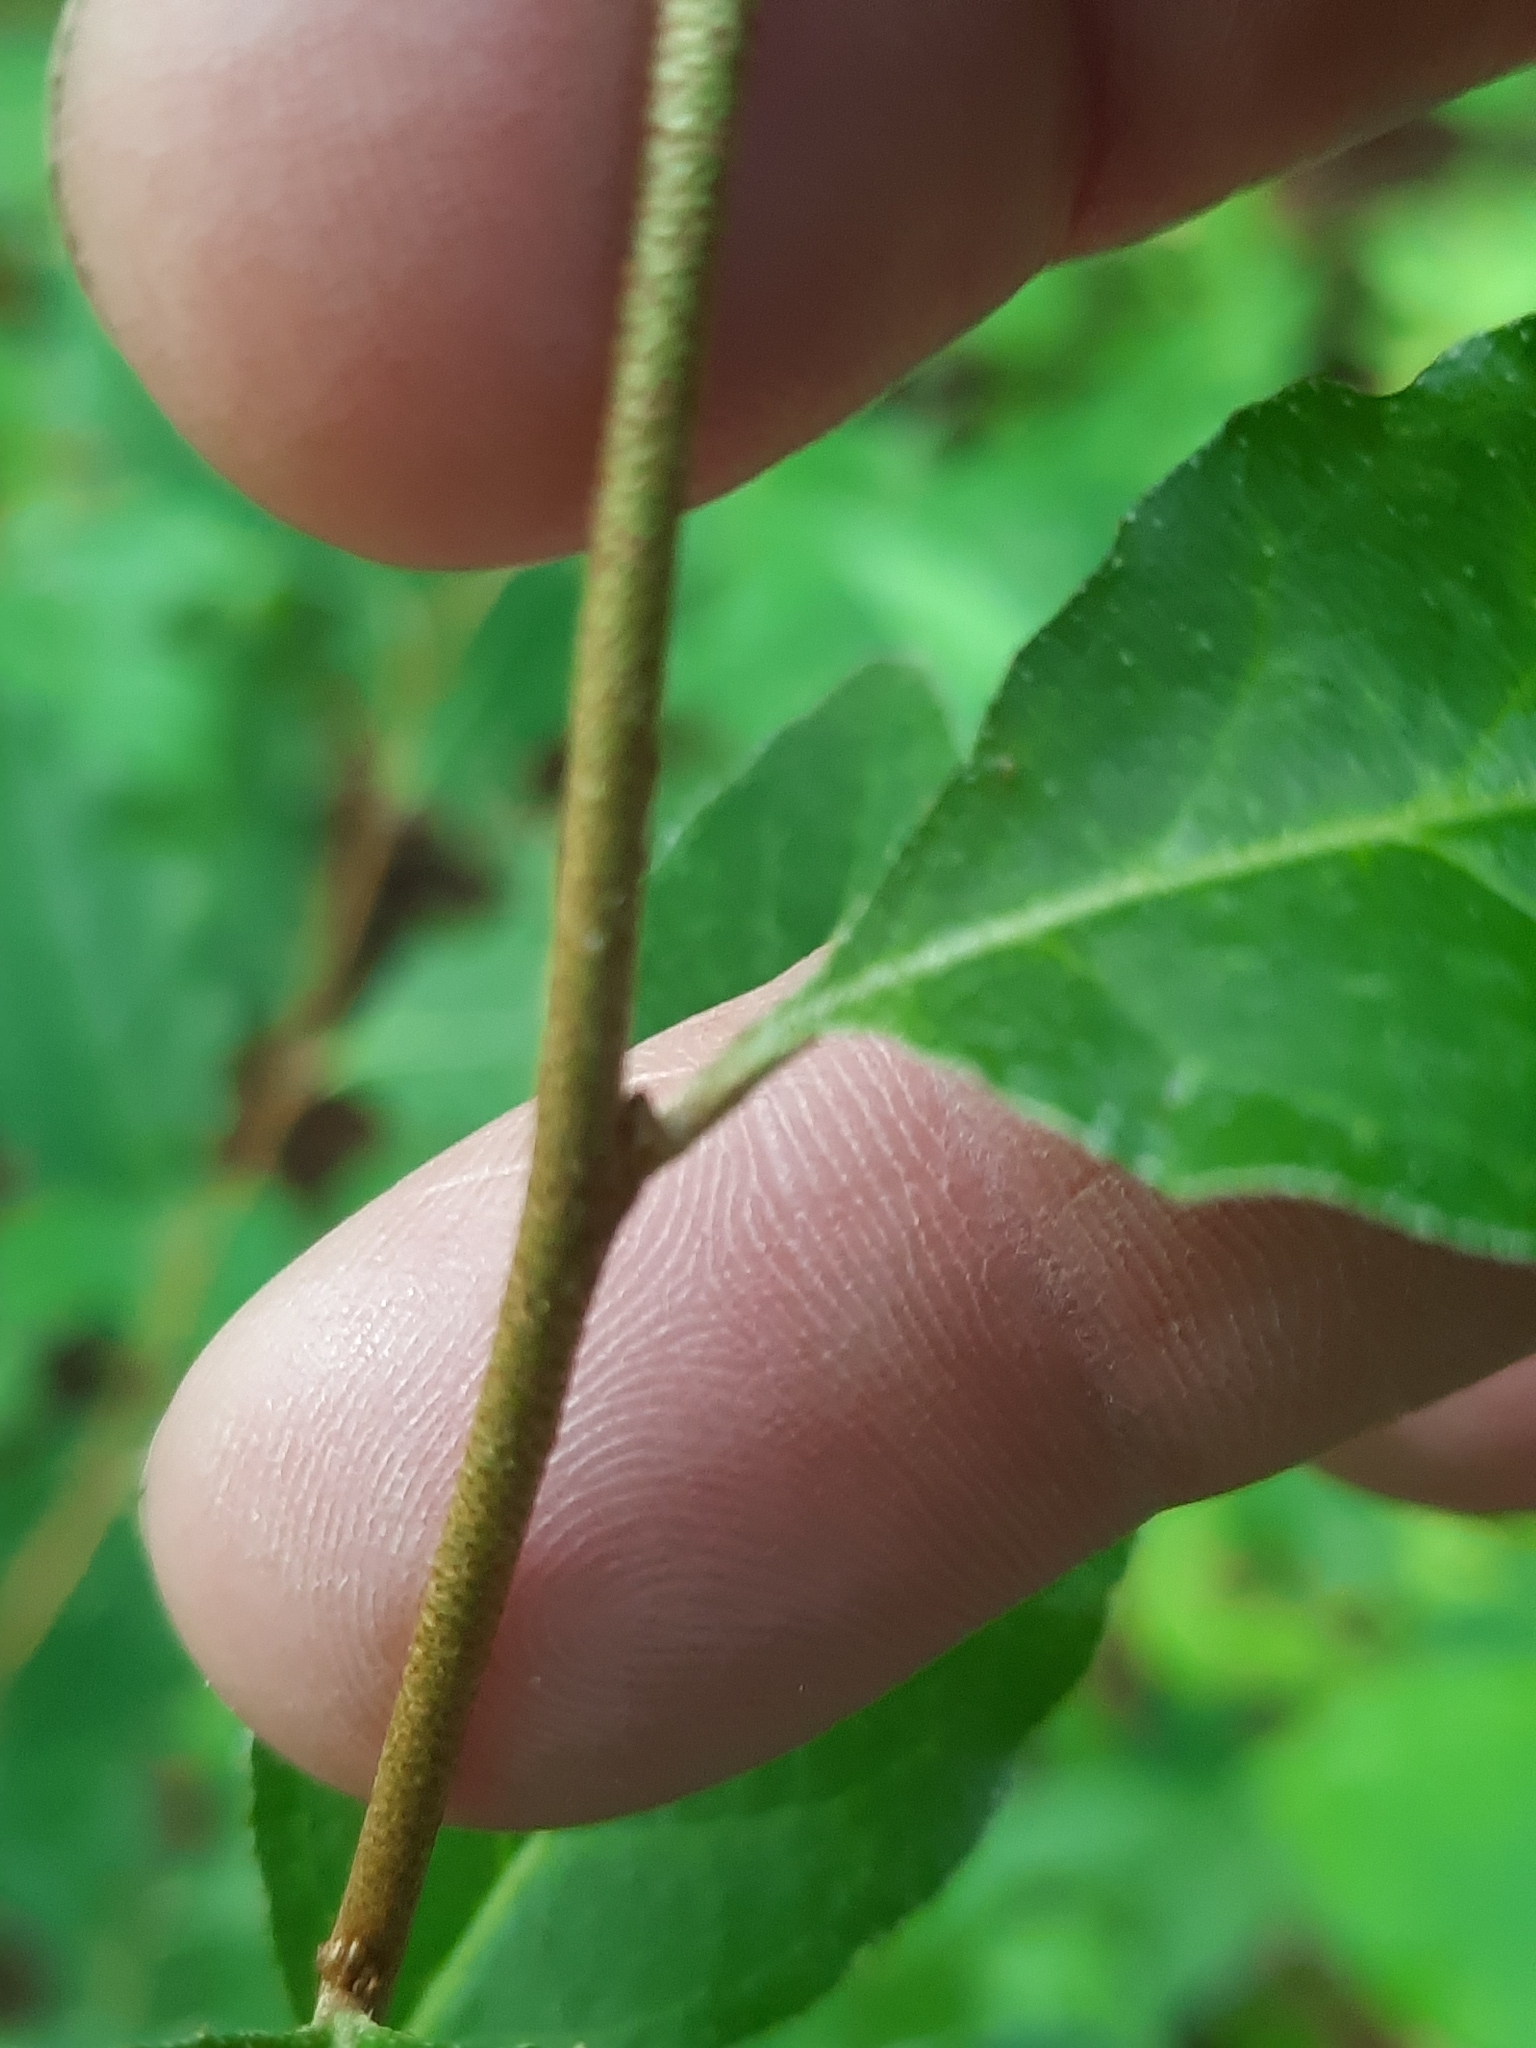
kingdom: Plantae
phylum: Tracheophyta
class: Magnoliopsida
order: Rosales
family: Elaeagnaceae
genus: Elaeagnus
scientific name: Elaeagnus umbellata
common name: Autumn olive
